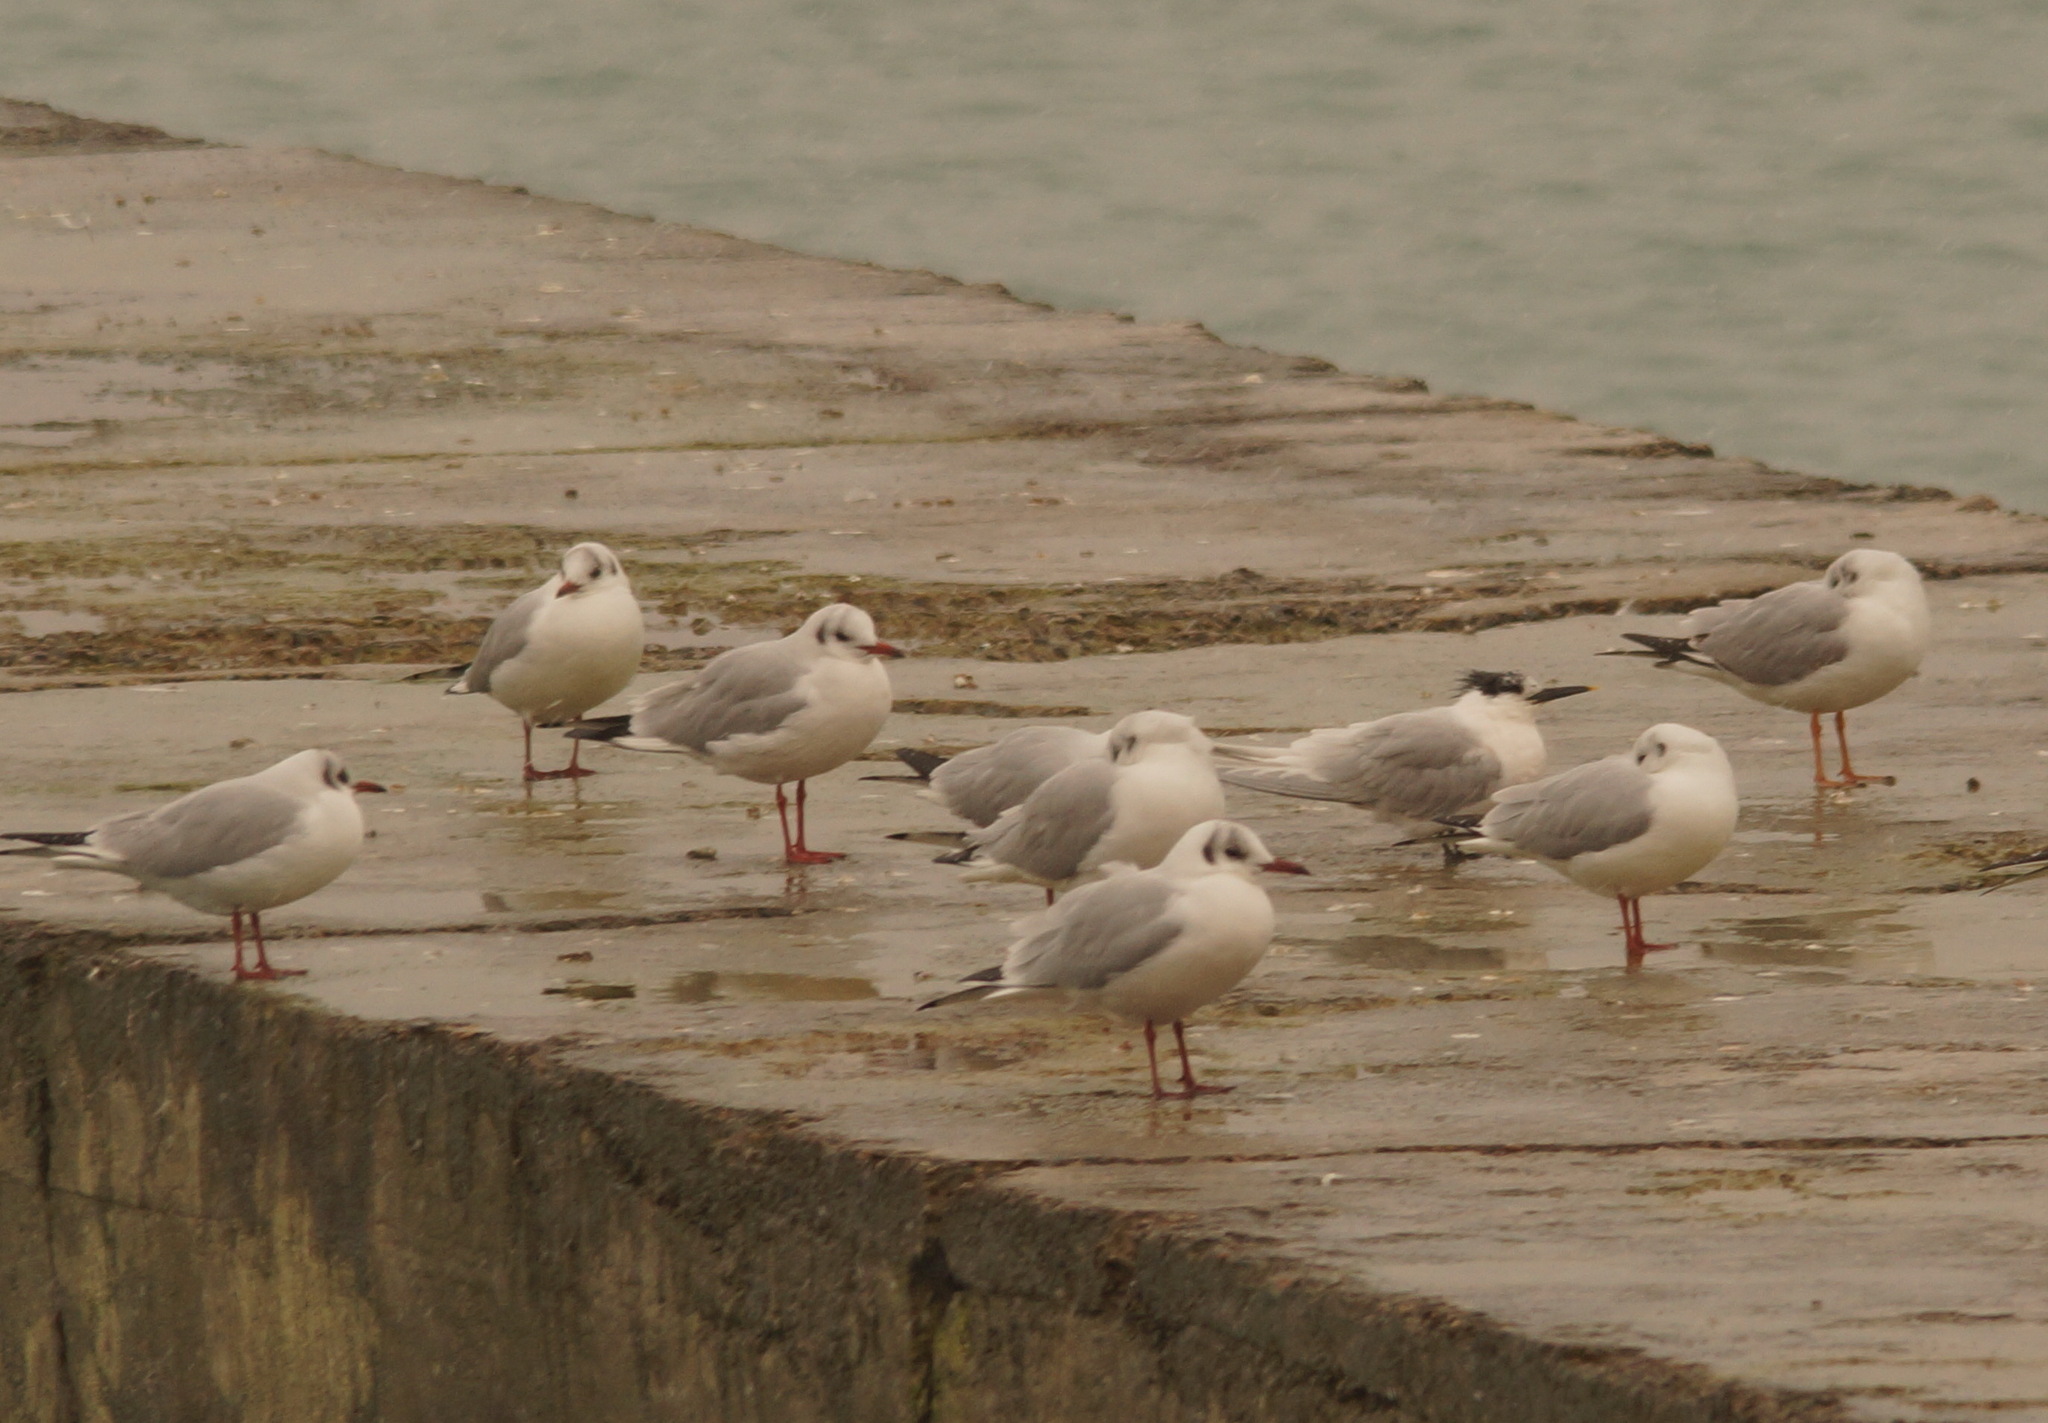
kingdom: Animalia
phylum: Chordata
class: Aves
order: Charadriiformes
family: Laridae
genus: Chroicocephalus
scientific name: Chroicocephalus ridibundus
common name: Black-headed gull
